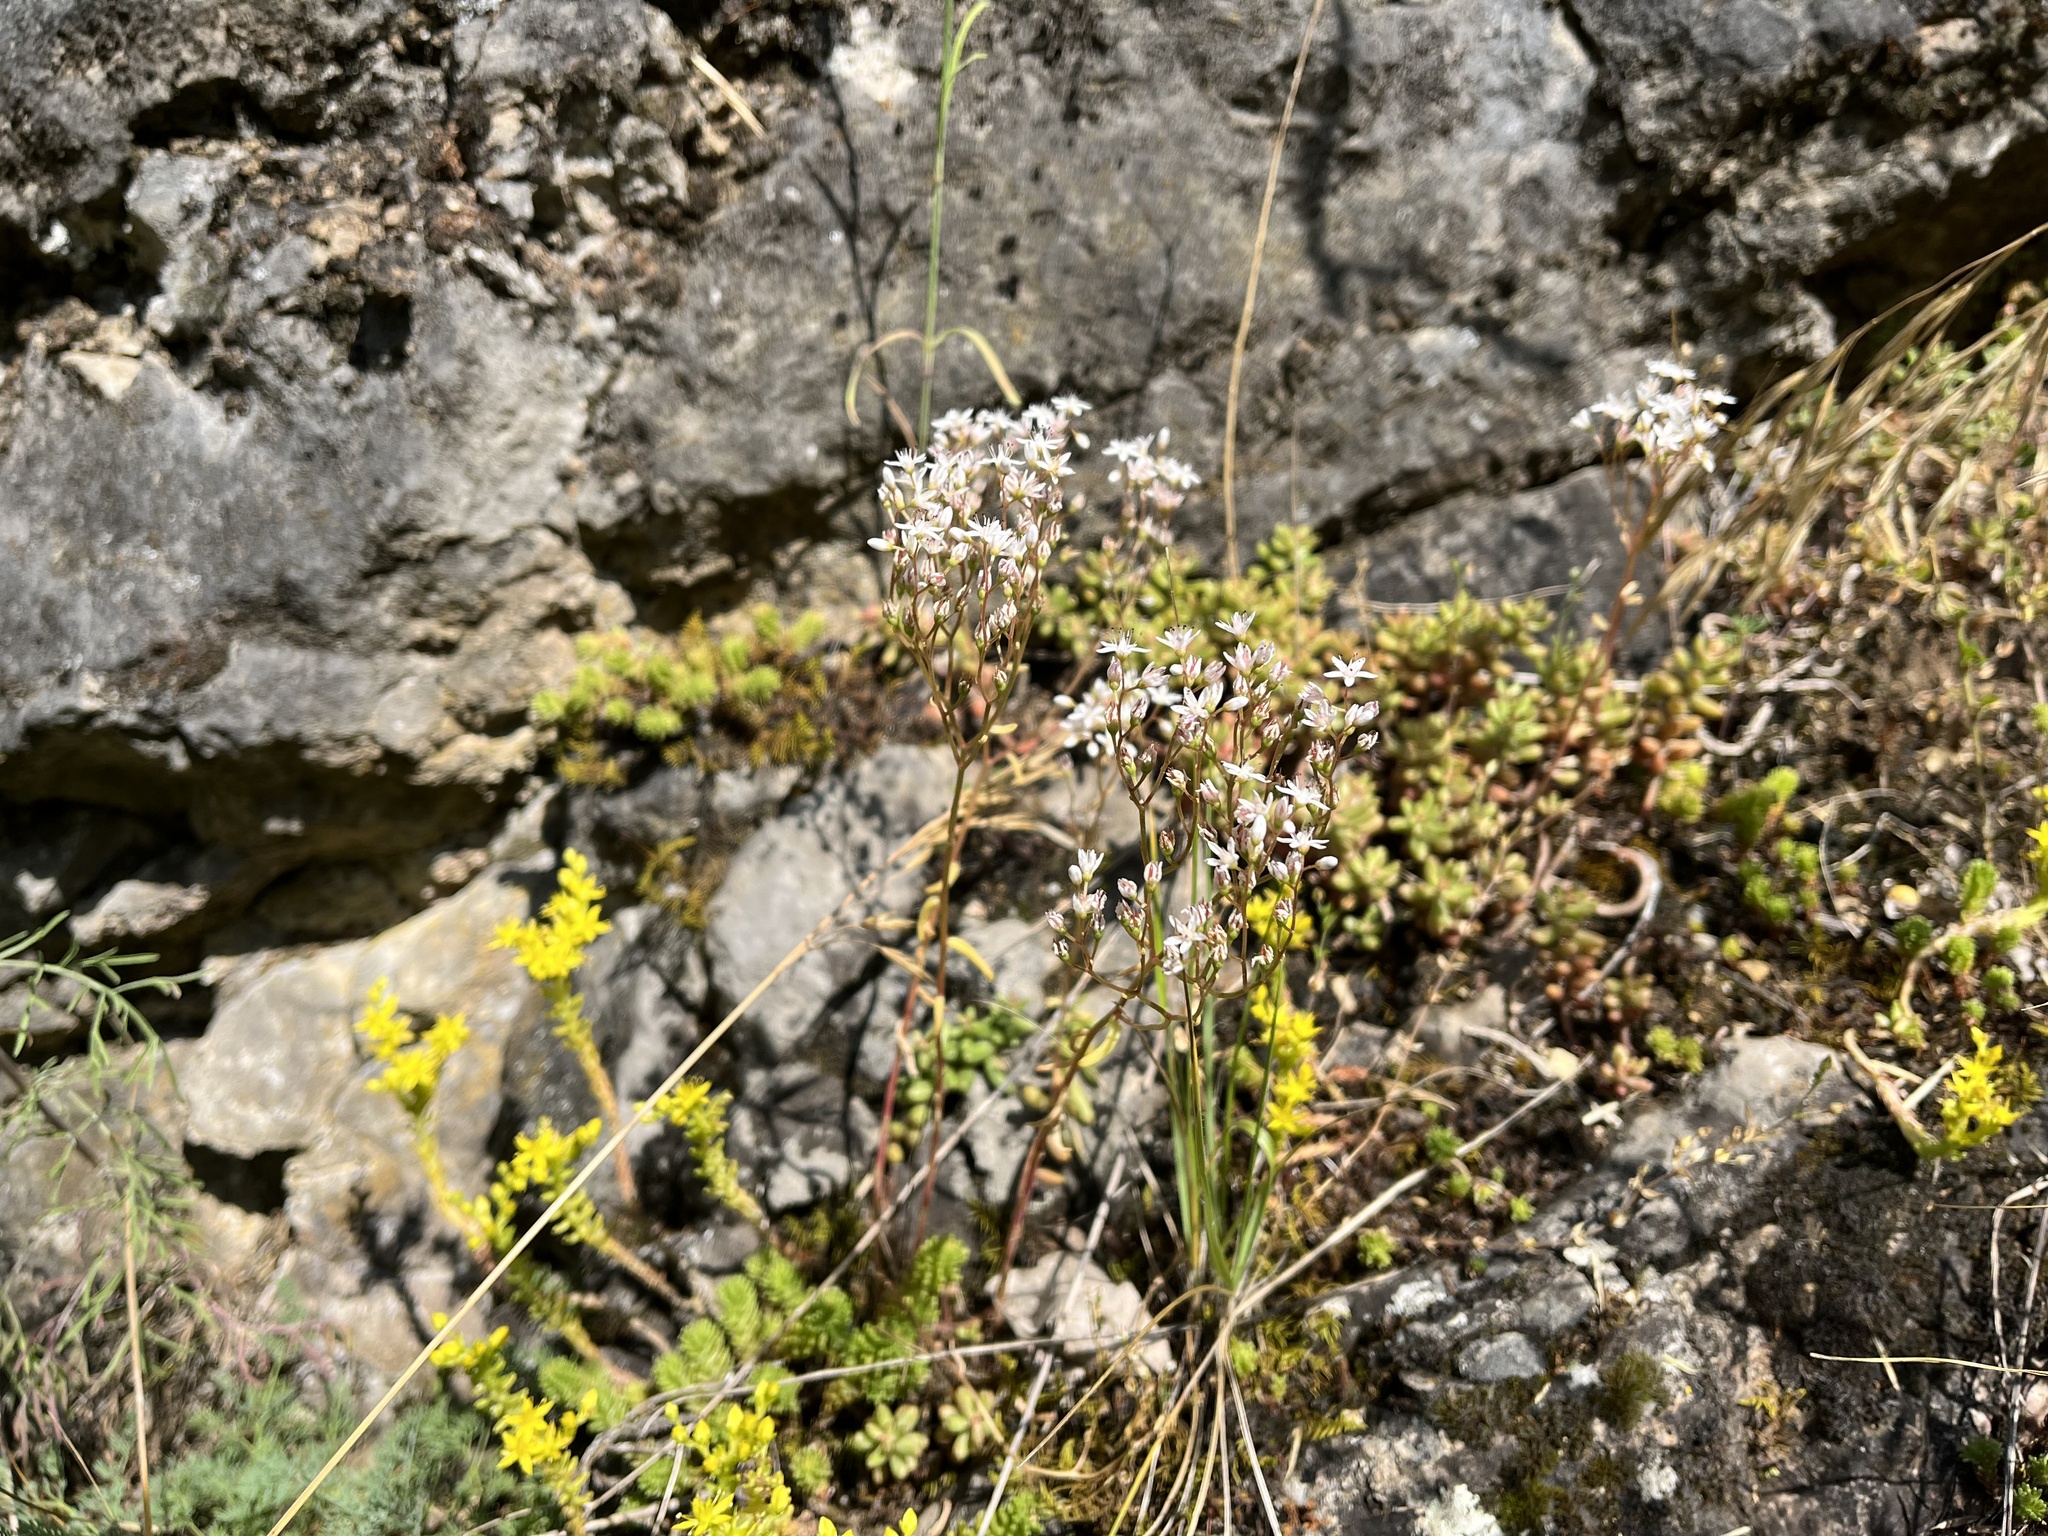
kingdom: Plantae
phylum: Tracheophyta
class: Magnoliopsida
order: Saxifragales
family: Crassulaceae
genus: Sedum
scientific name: Sedum album
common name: White stonecrop
